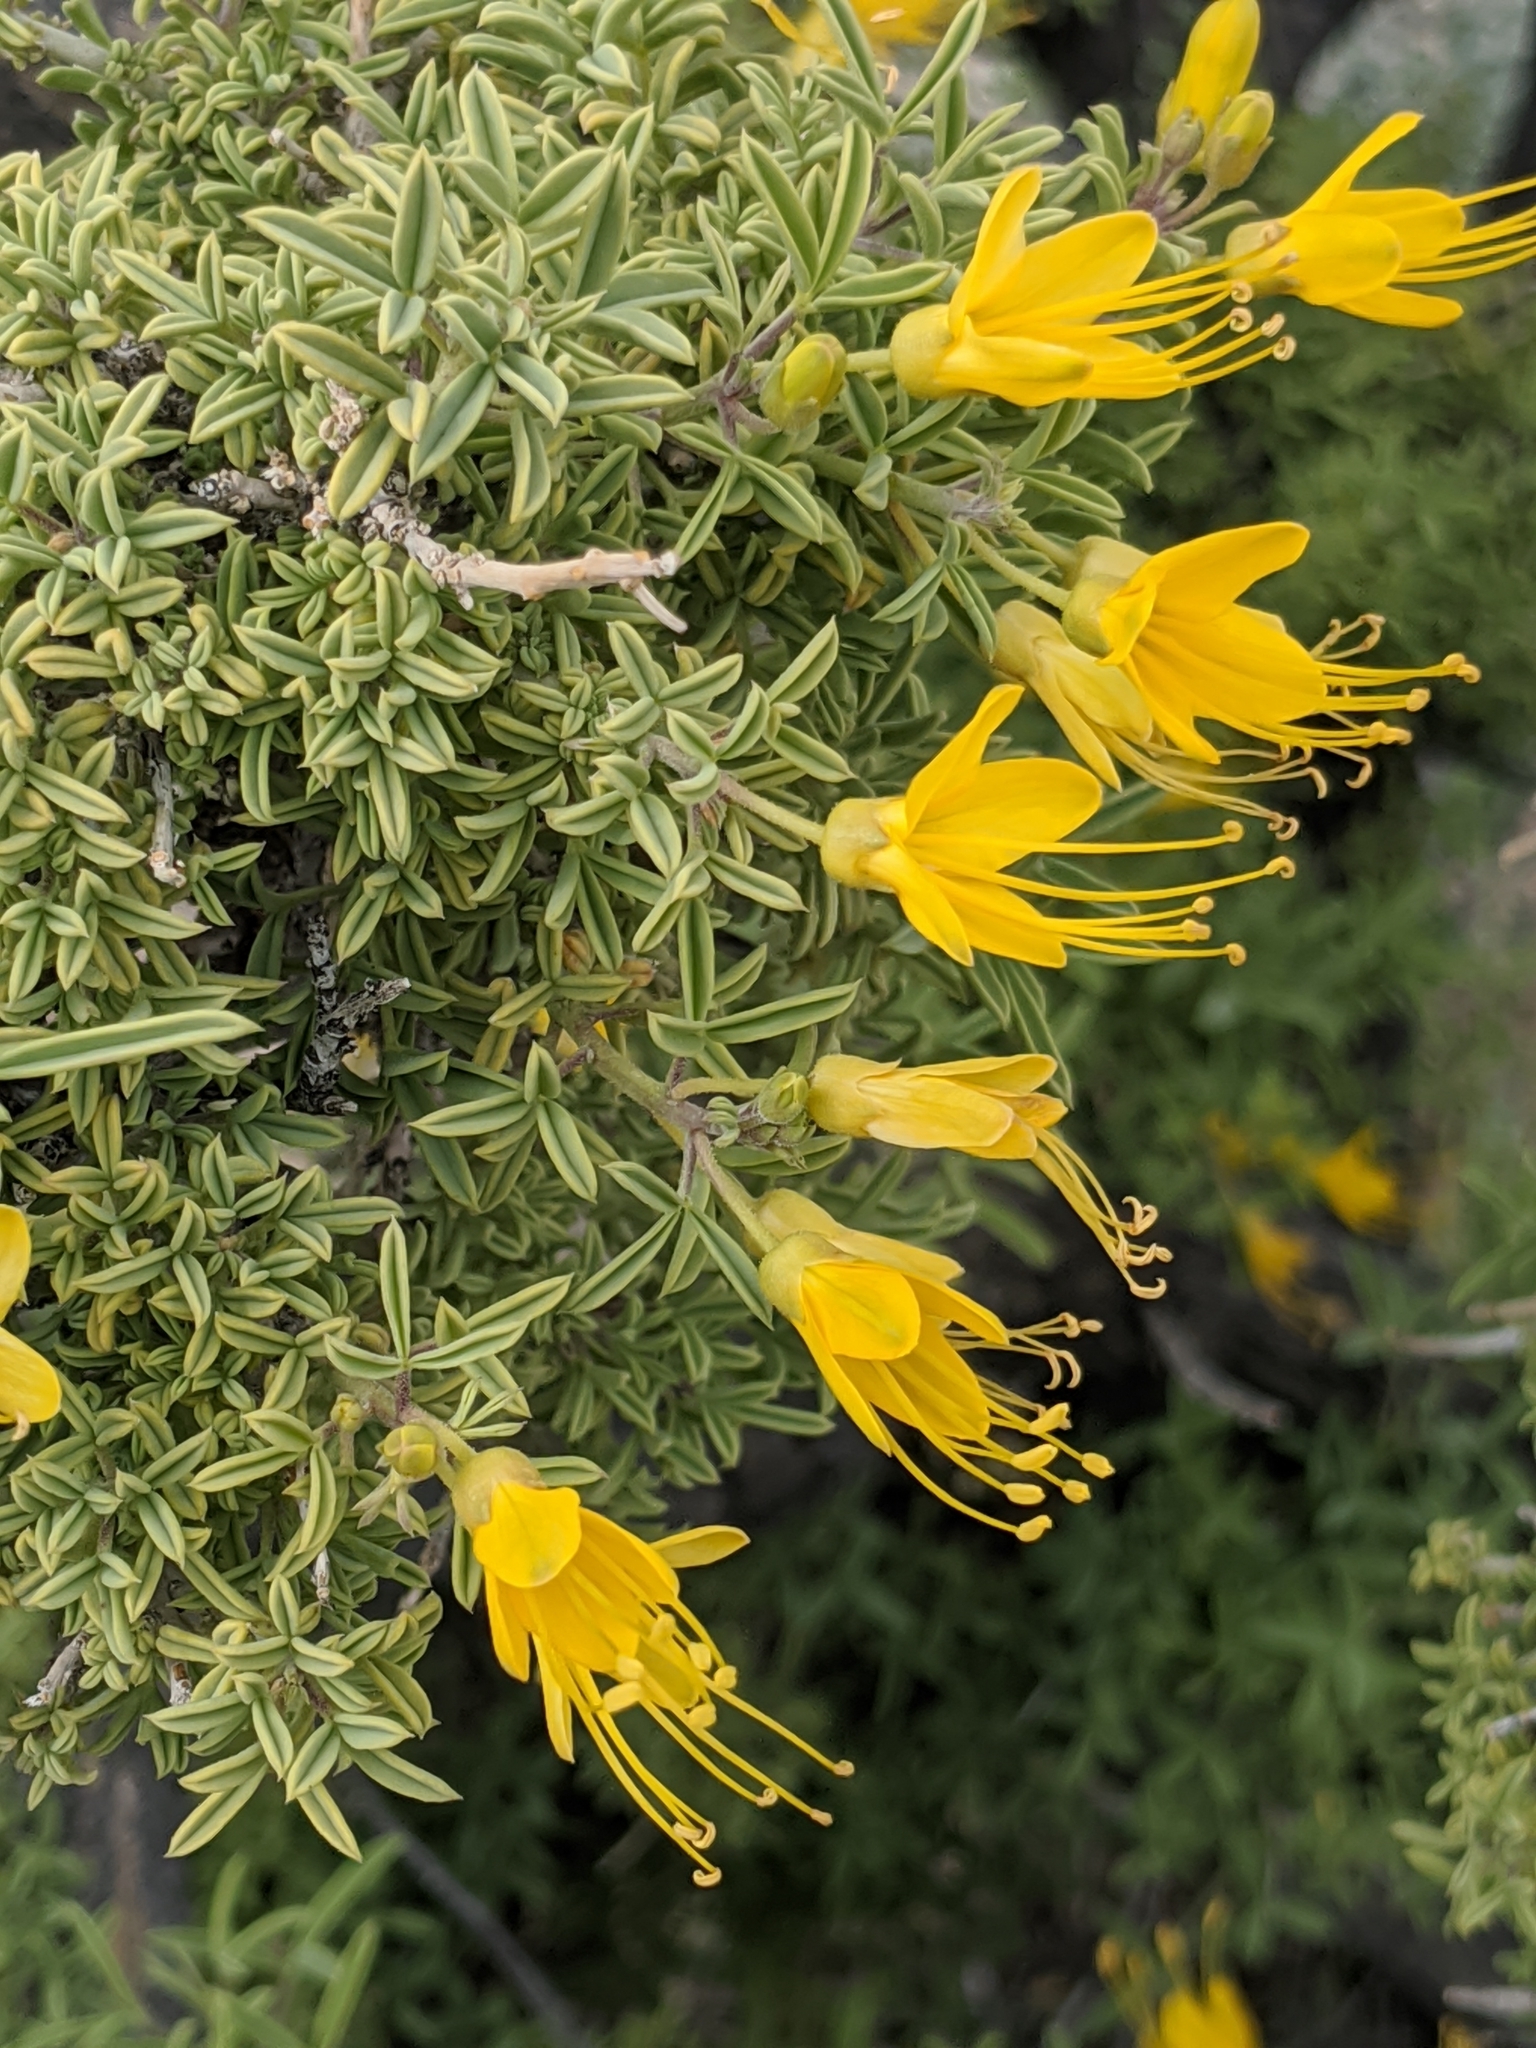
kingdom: Plantae
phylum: Tracheophyta
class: Magnoliopsida
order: Brassicales
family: Cleomaceae
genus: Cleomella
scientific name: Cleomella arborea
